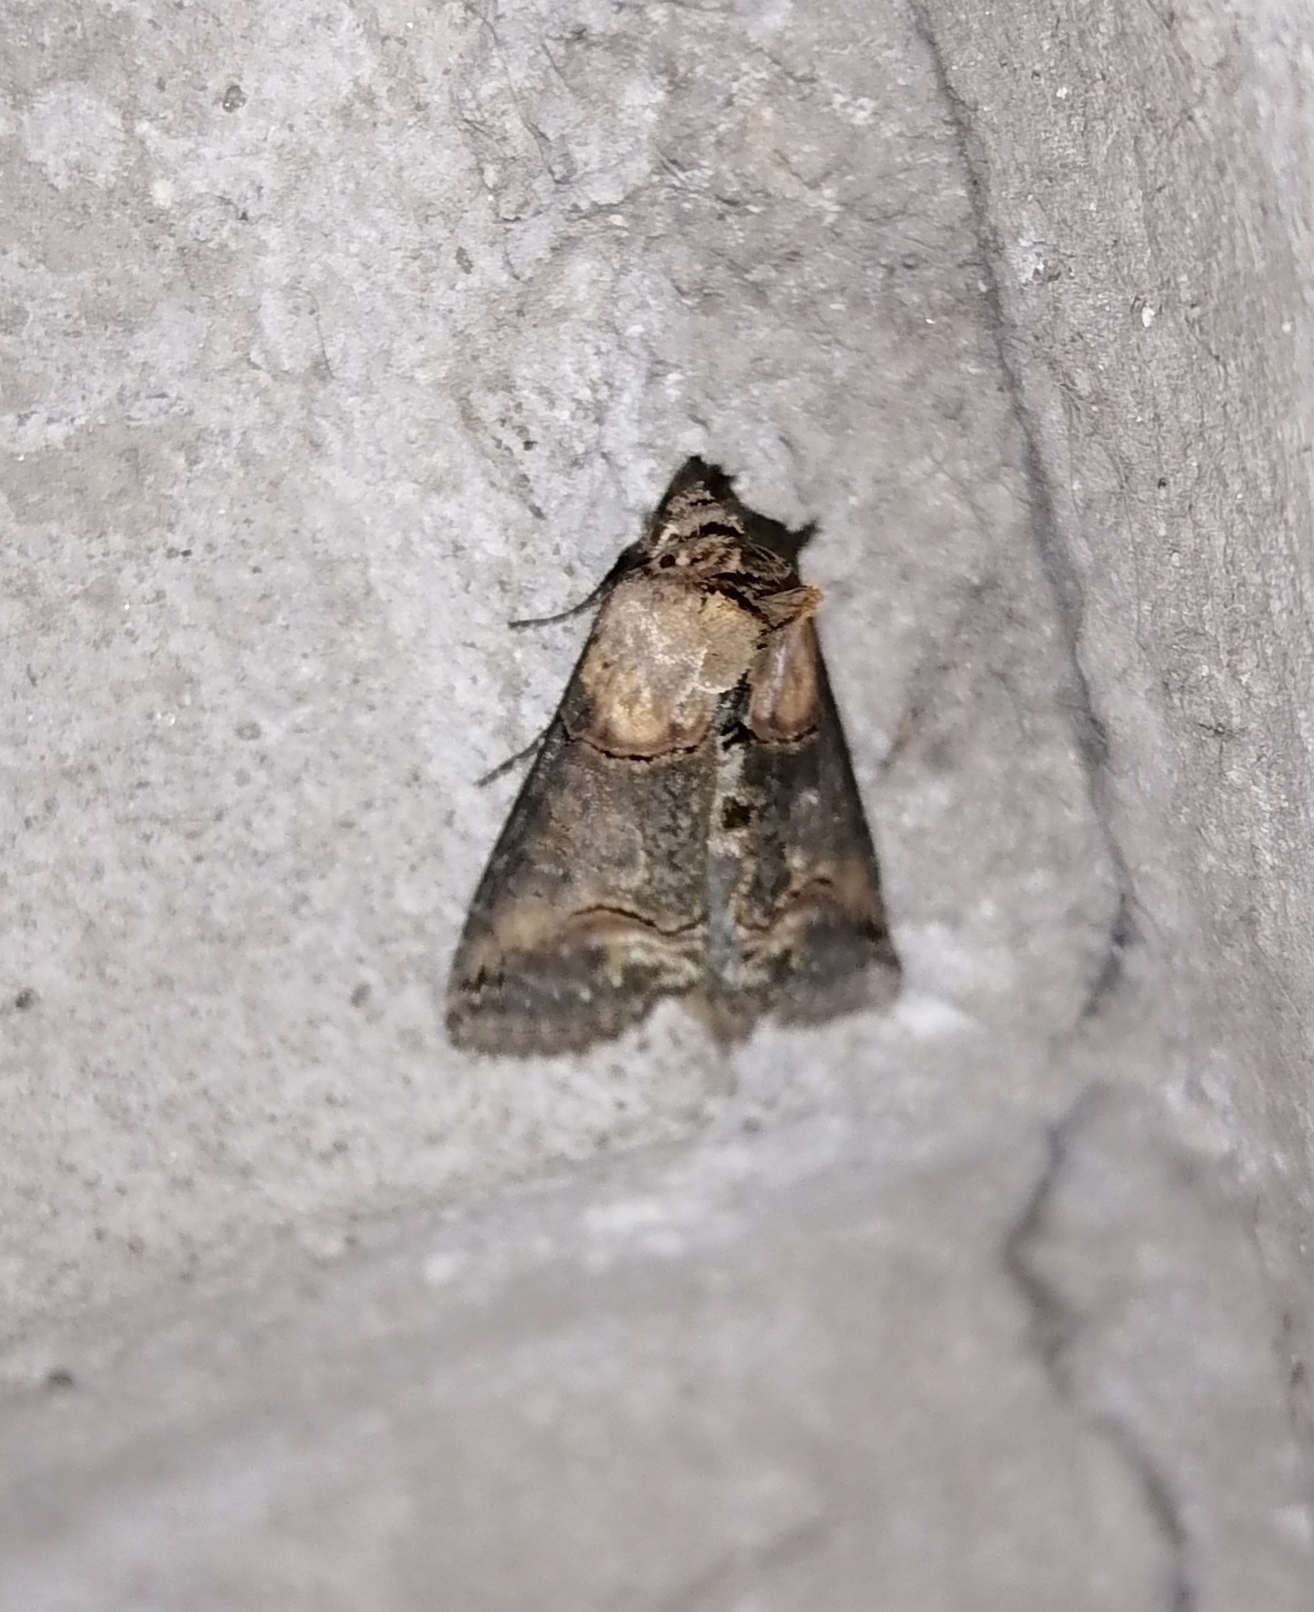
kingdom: Animalia
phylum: Arthropoda
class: Insecta
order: Lepidoptera
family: Noctuidae
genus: Abrostola
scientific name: Abrostola triplasia
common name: Dark spectacle
